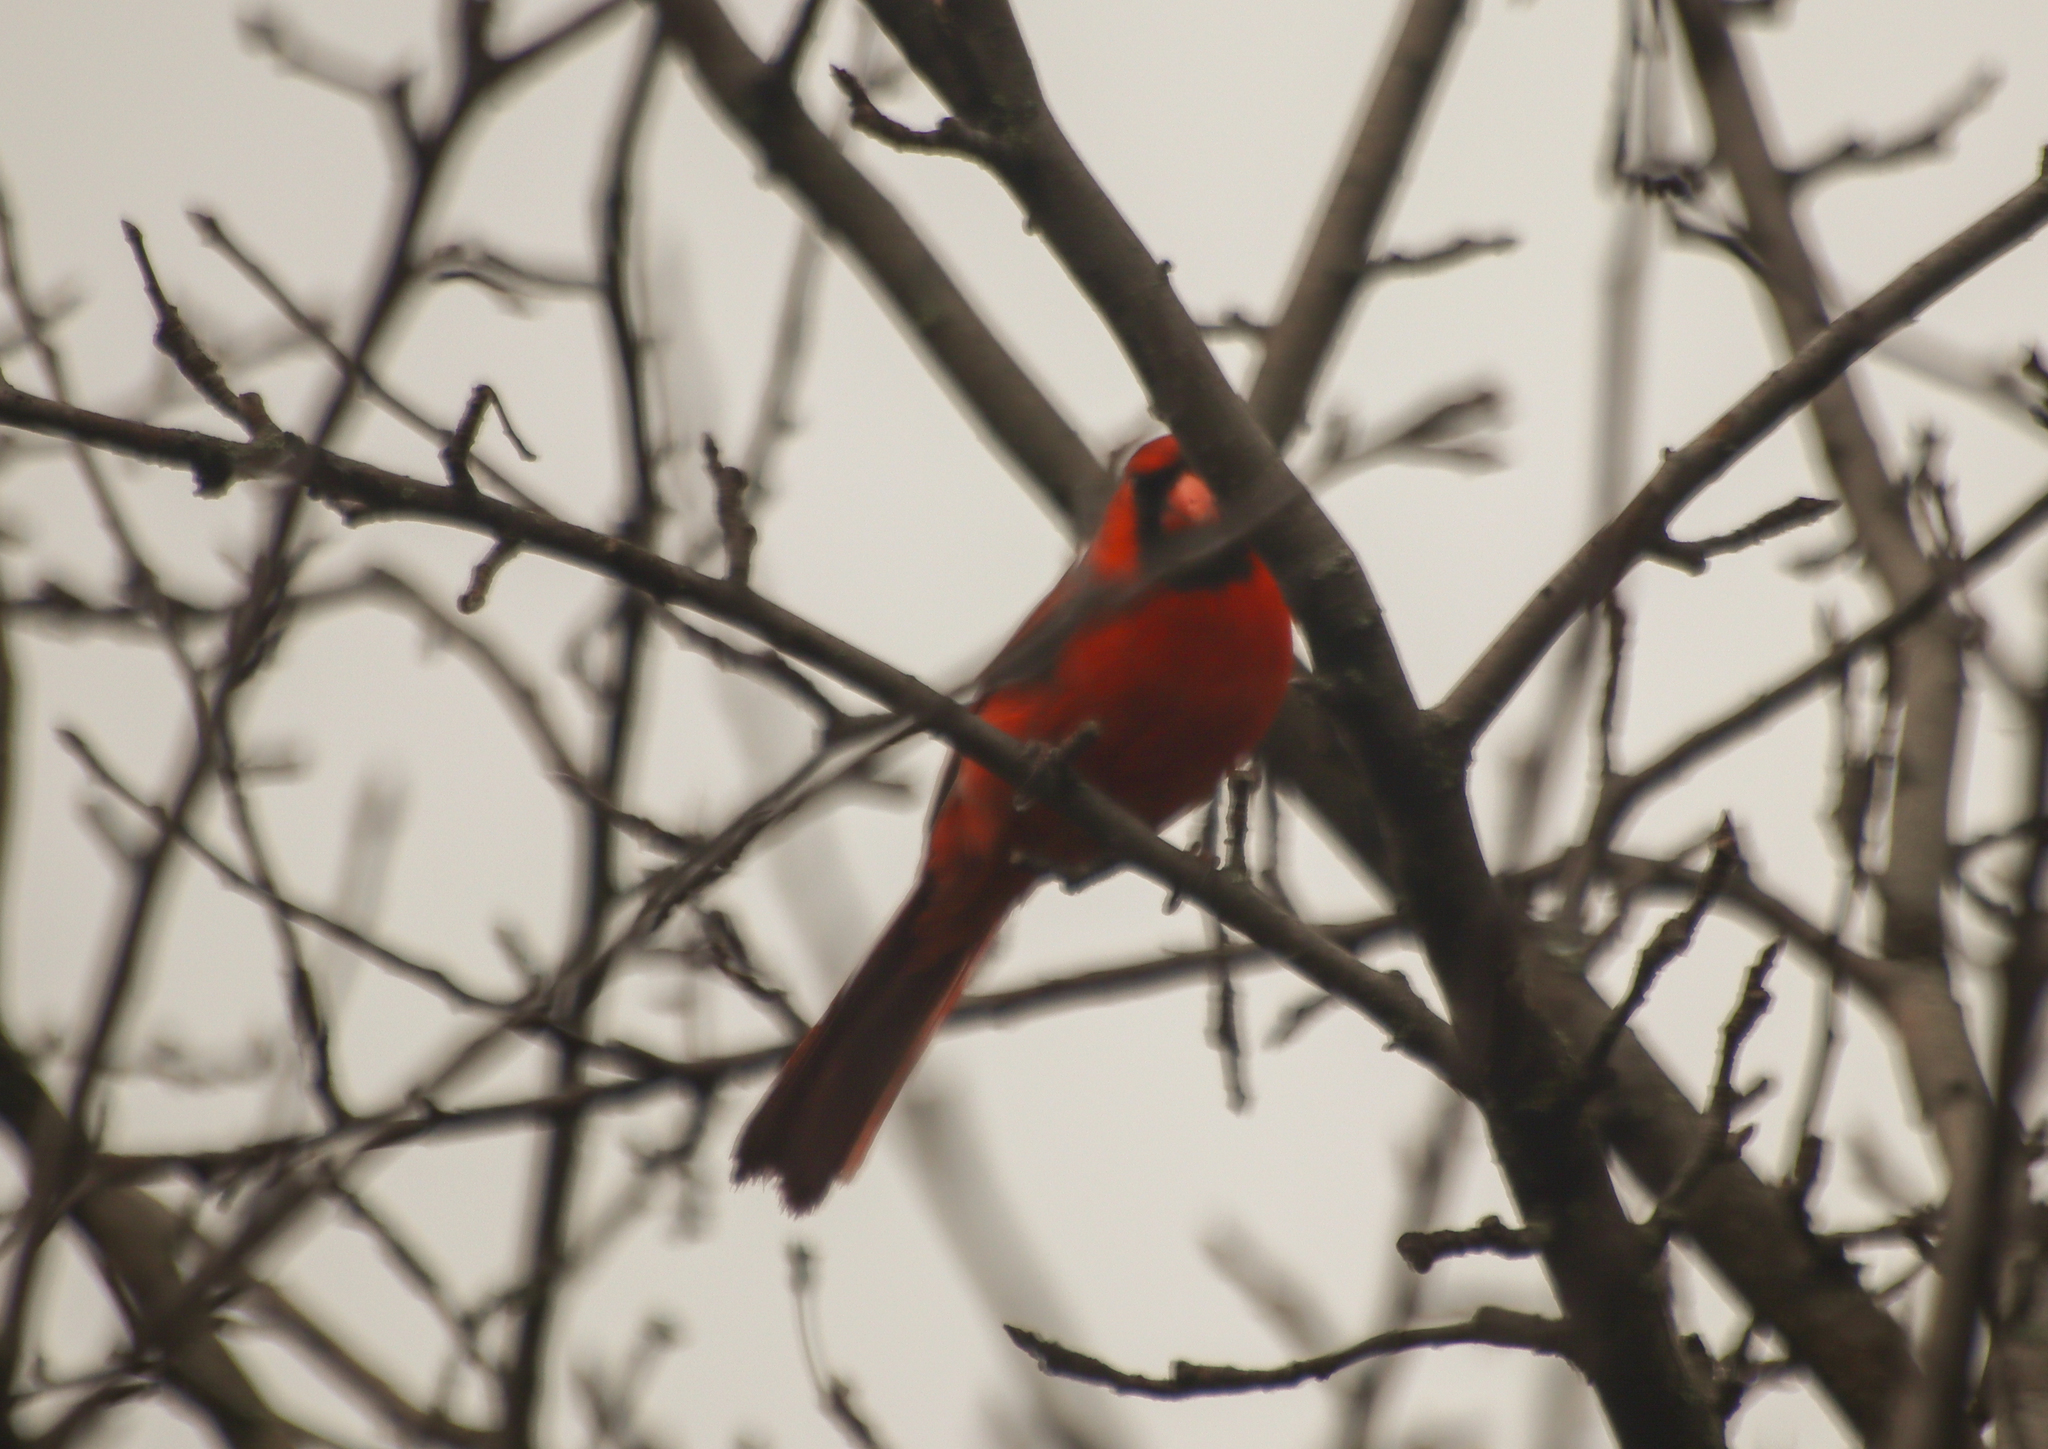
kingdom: Animalia
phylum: Chordata
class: Aves
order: Passeriformes
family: Cardinalidae
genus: Cardinalis
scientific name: Cardinalis cardinalis
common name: Northern cardinal
